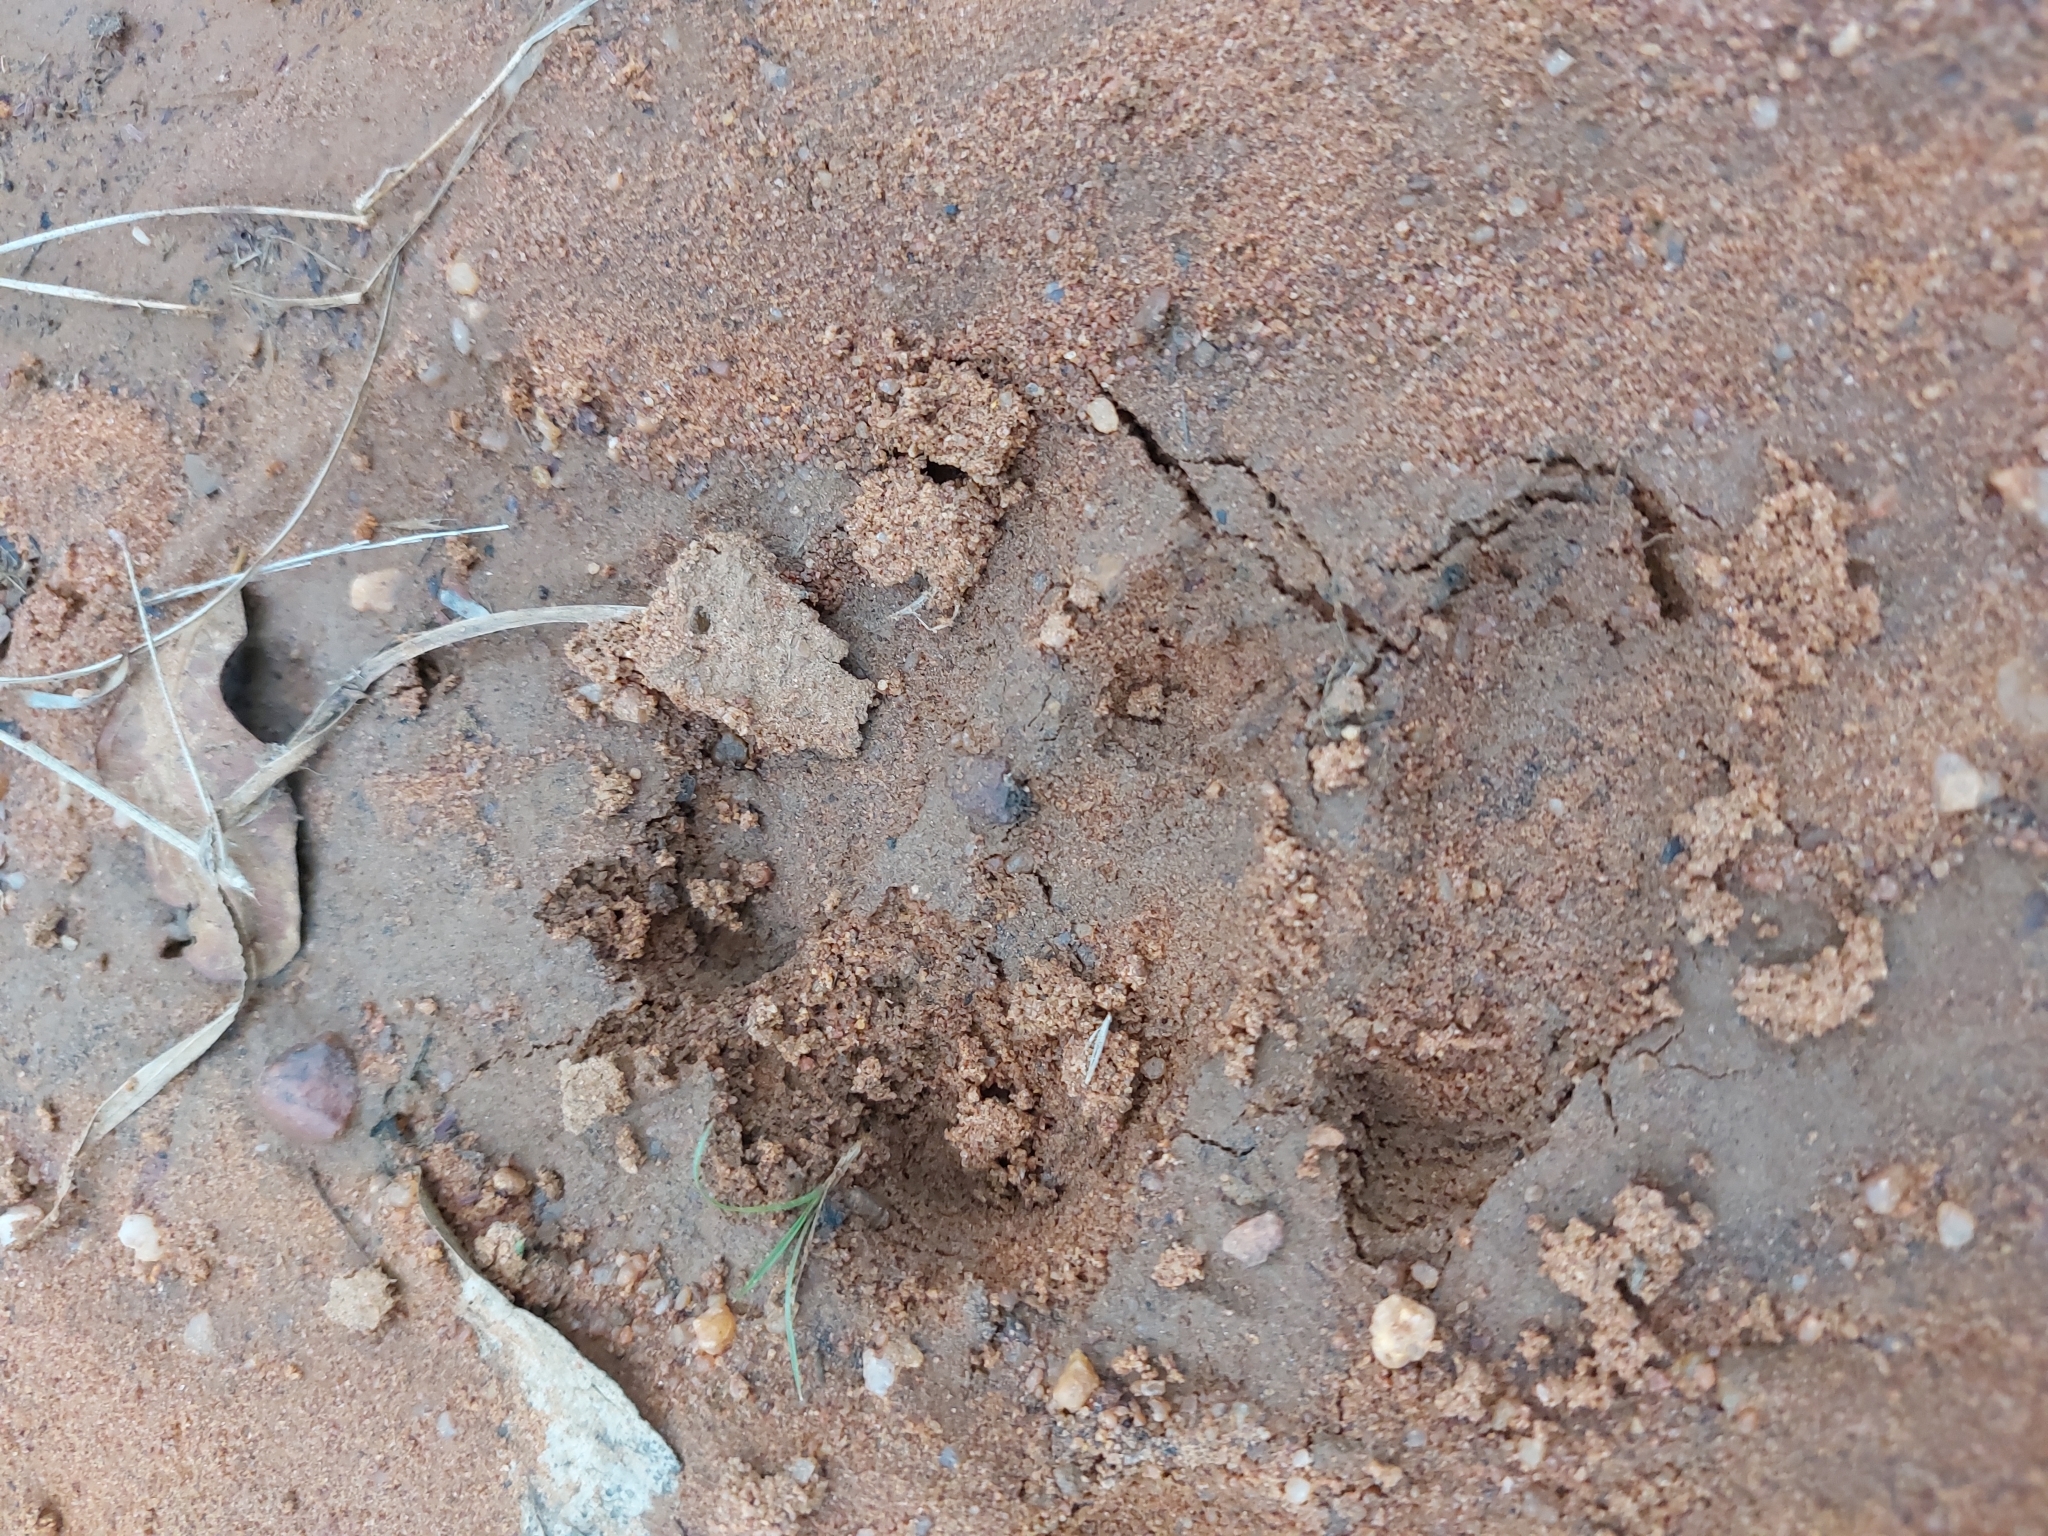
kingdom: Animalia
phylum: Chordata
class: Mammalia
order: Tubulidentata
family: Orycteropodidae
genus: Orycteropus
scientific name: Orycteropus afer
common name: Aardvark
